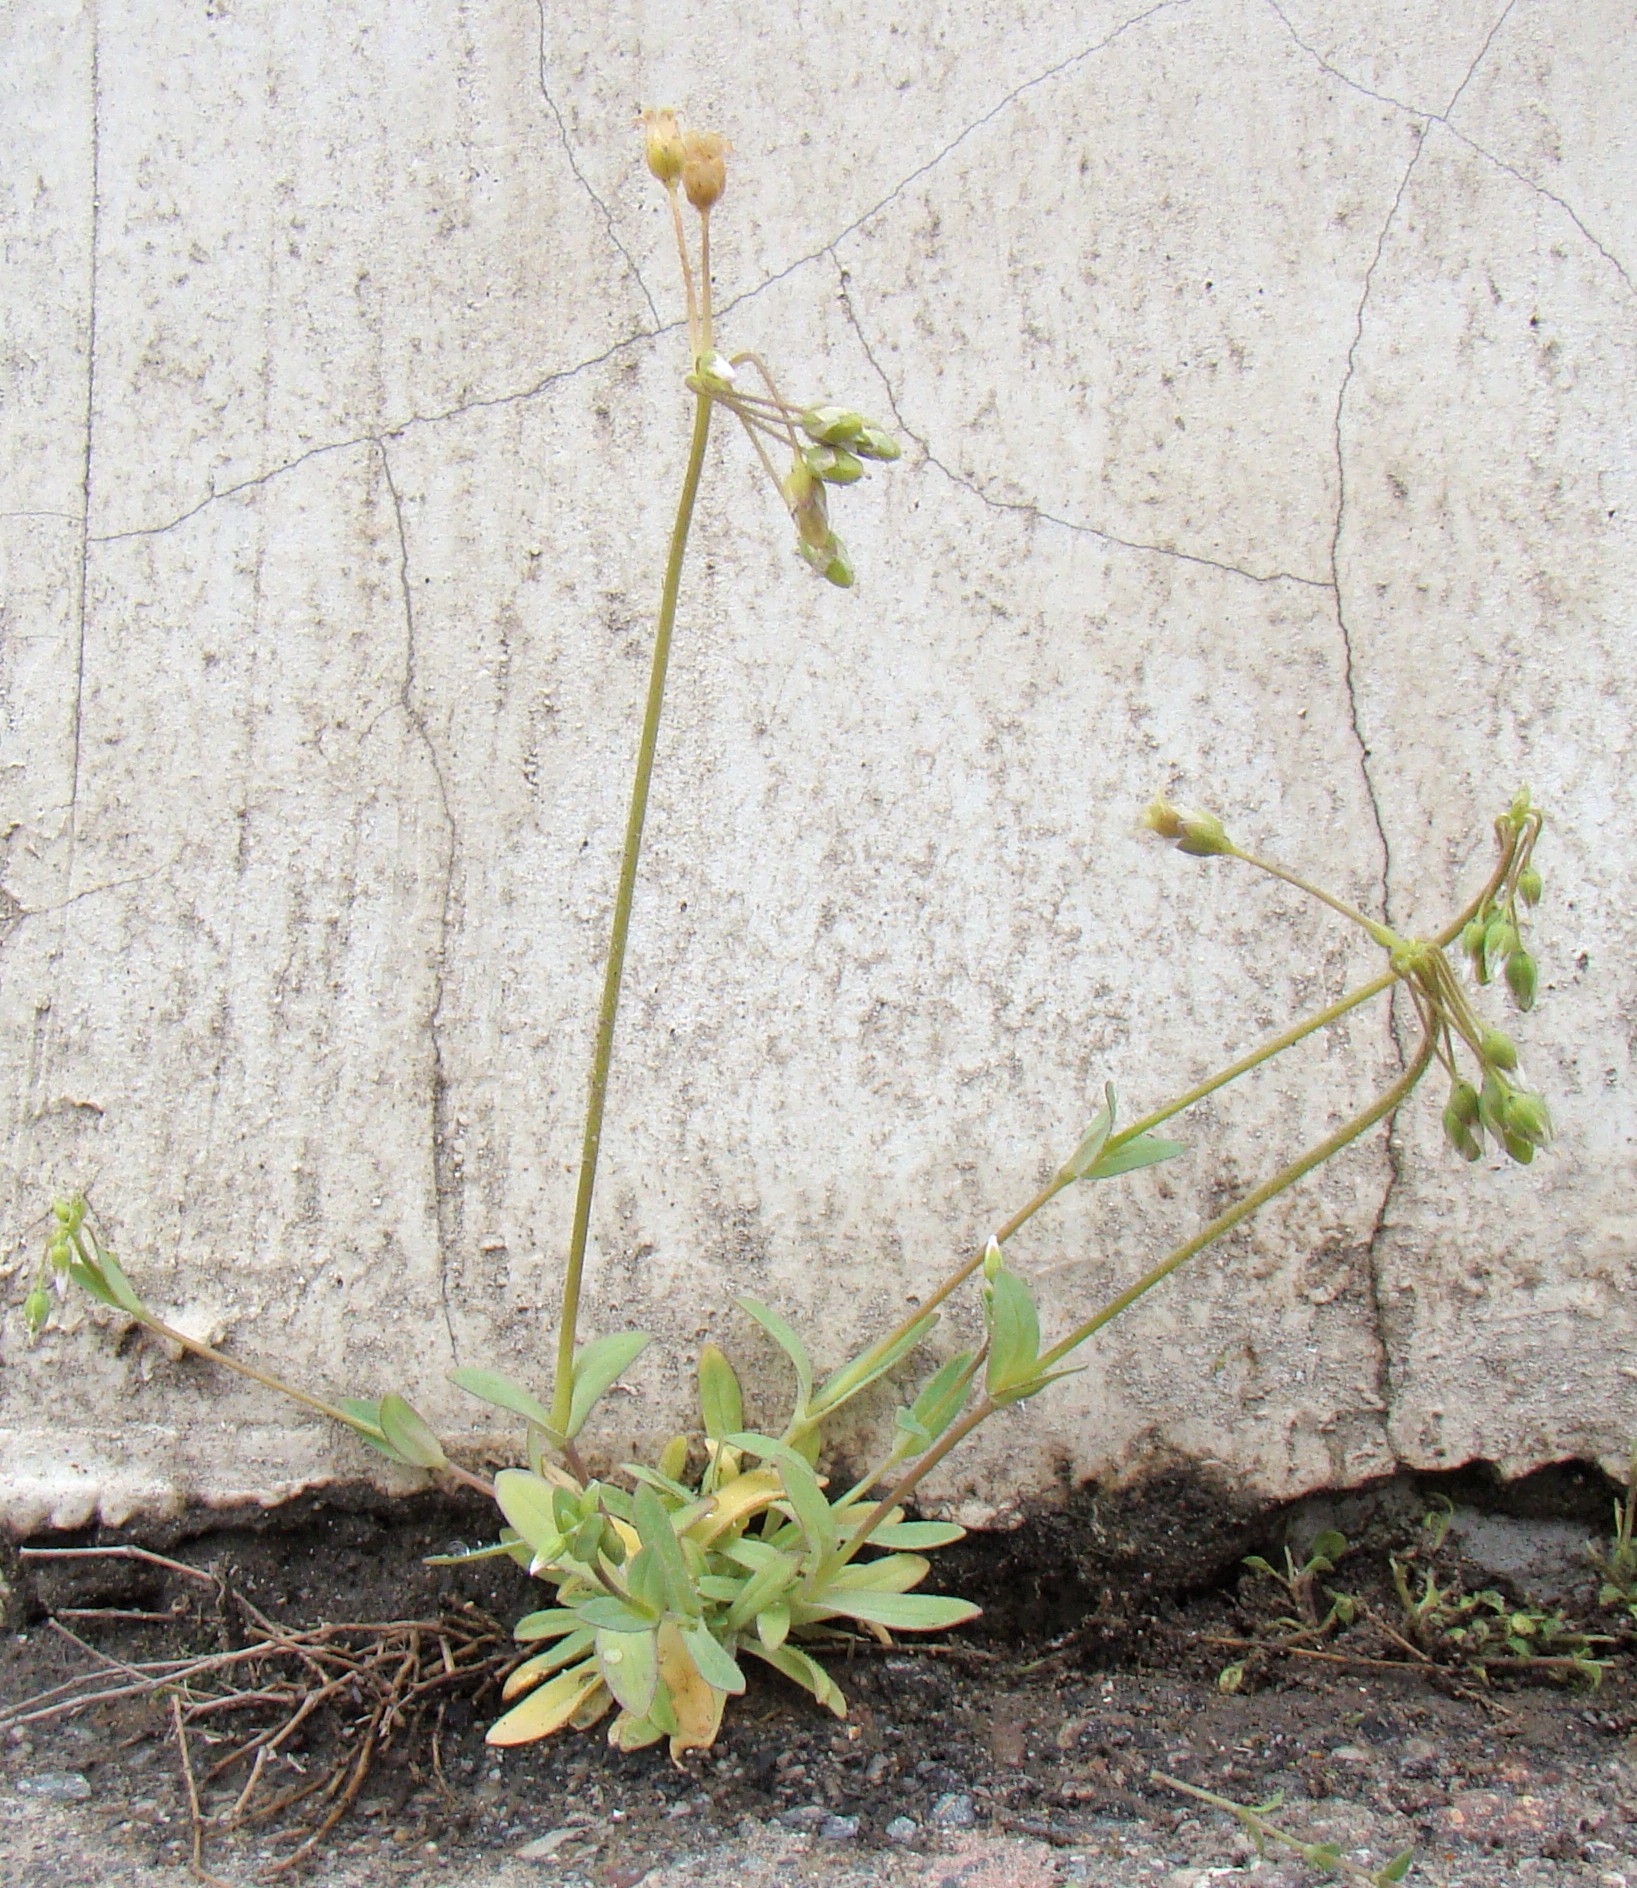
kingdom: Plantae
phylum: Tracheophyta
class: Magnoliopsida
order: Caryophyllales
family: Caryophyllaceae
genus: Holosteum
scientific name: Holosteum umbellatum
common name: Jagged chickweed
